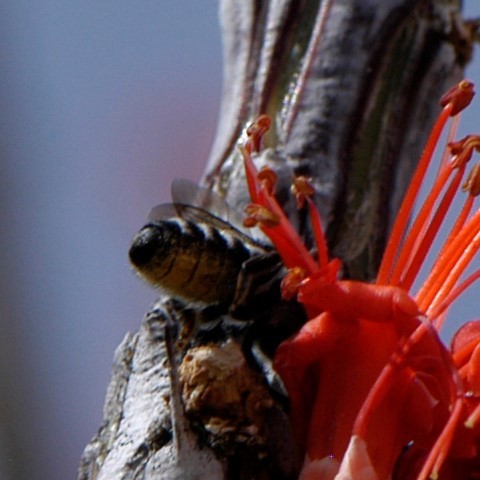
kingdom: Animalia
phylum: Arthropoda
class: Insecta
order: Hymenoptera
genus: Chelostomoides
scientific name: Chelostomoides
